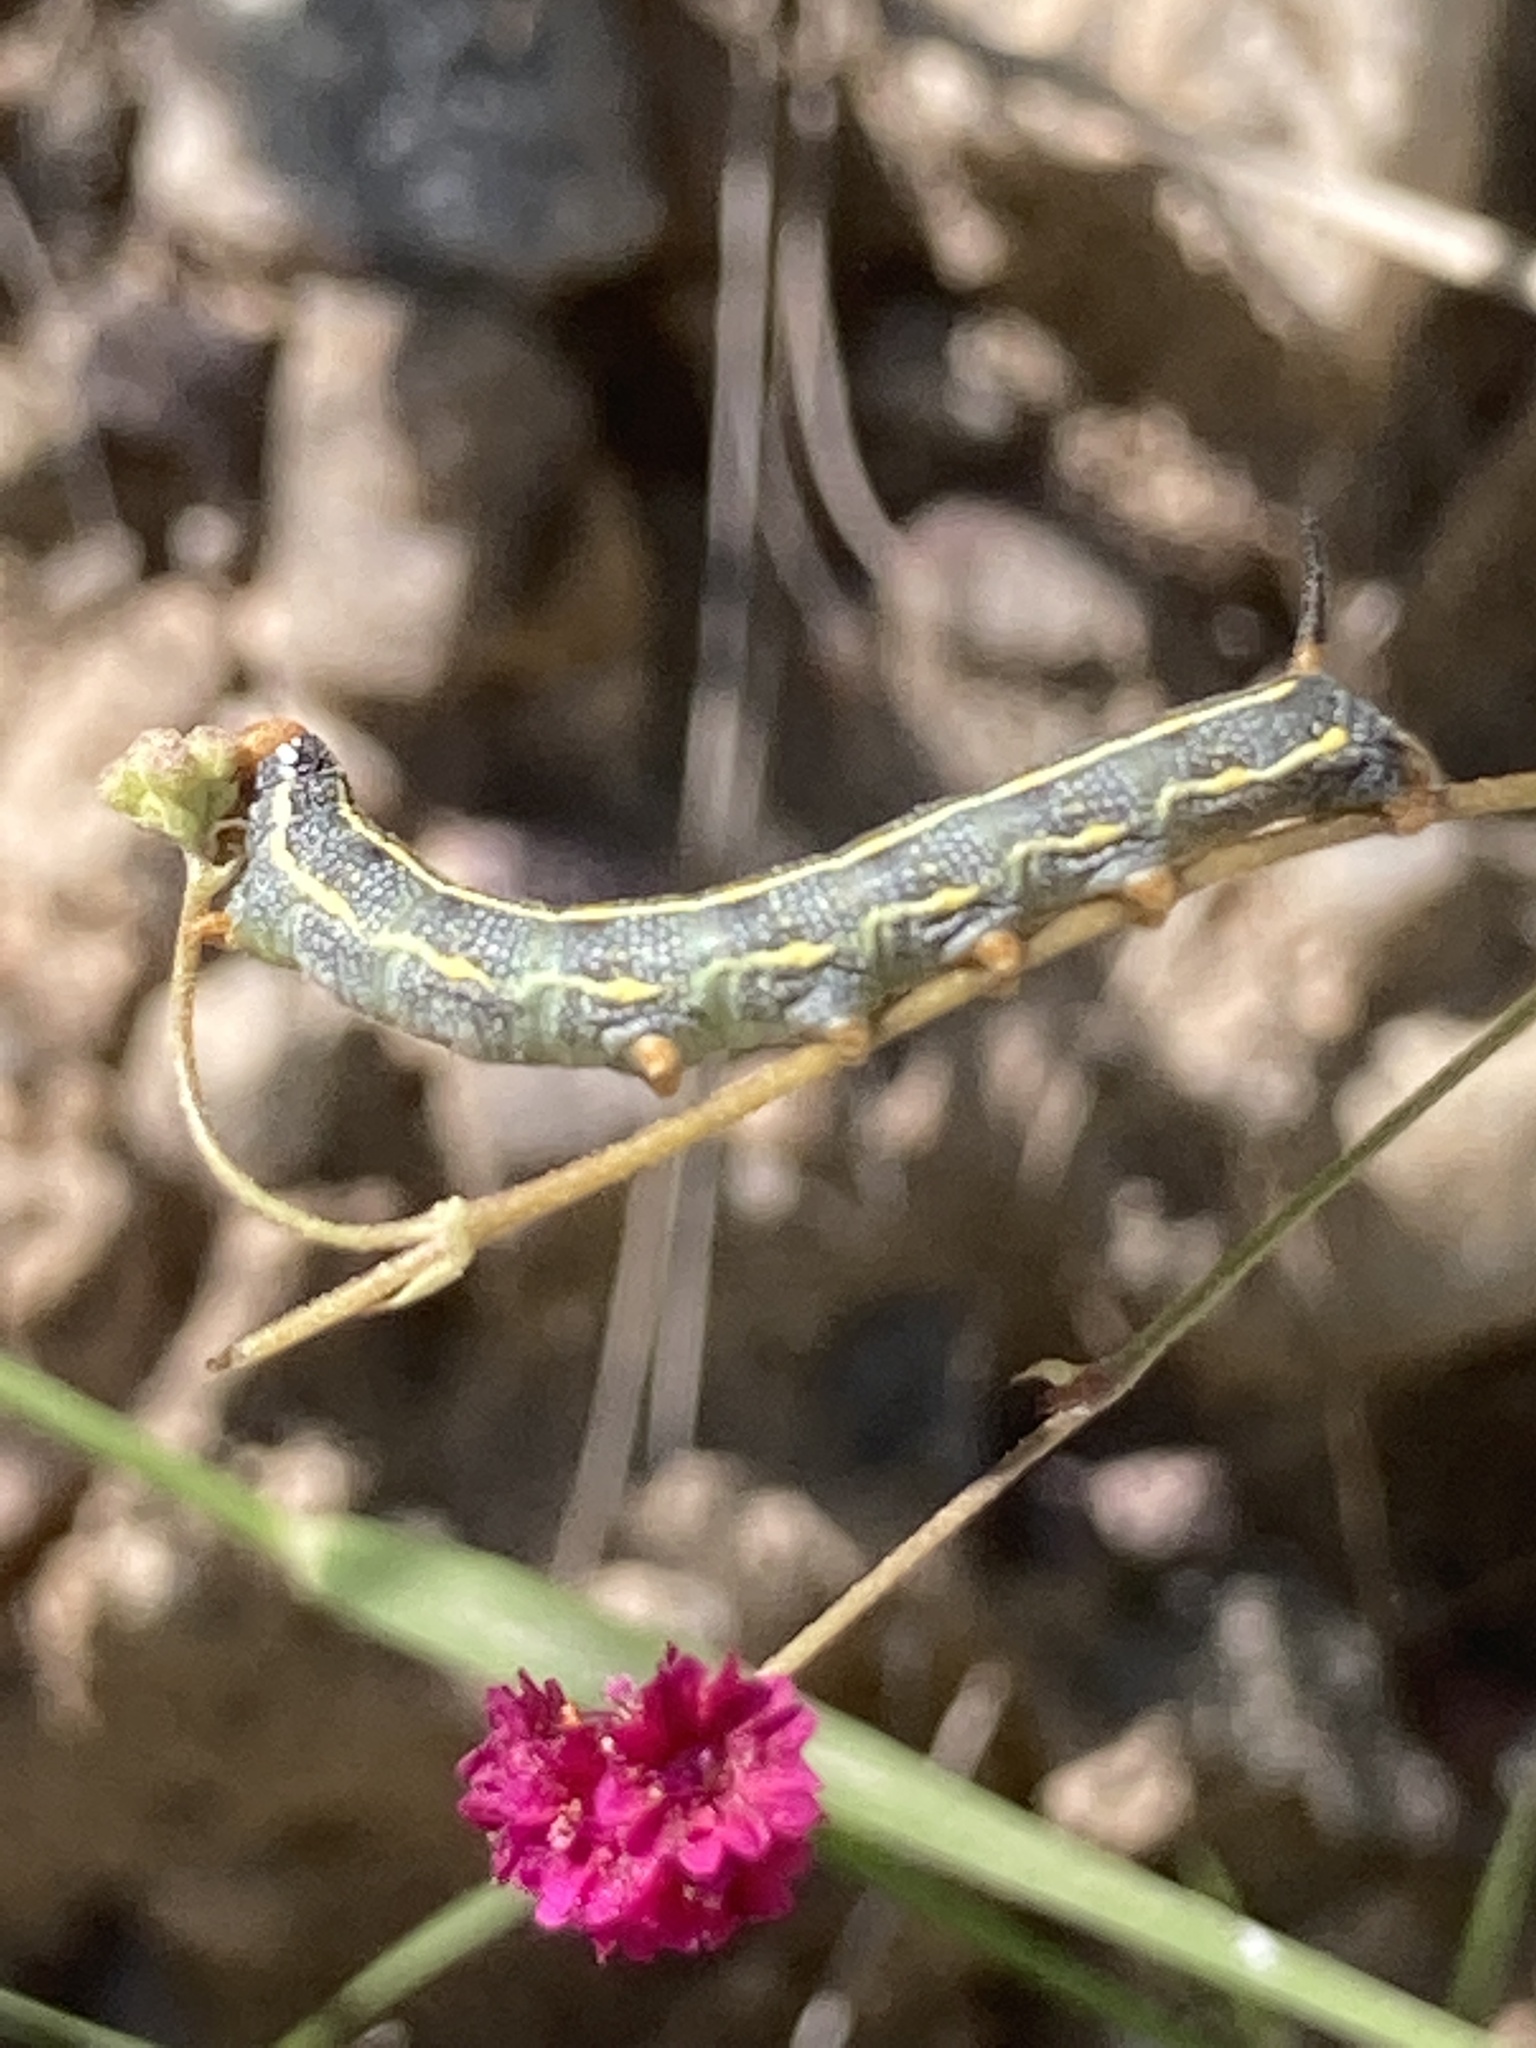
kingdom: Animalia
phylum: Arthropoda
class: Insecta
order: Lepidoptera
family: Sphingidae
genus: Hyles
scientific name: Hyles lineata
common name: White-lined sphinx
